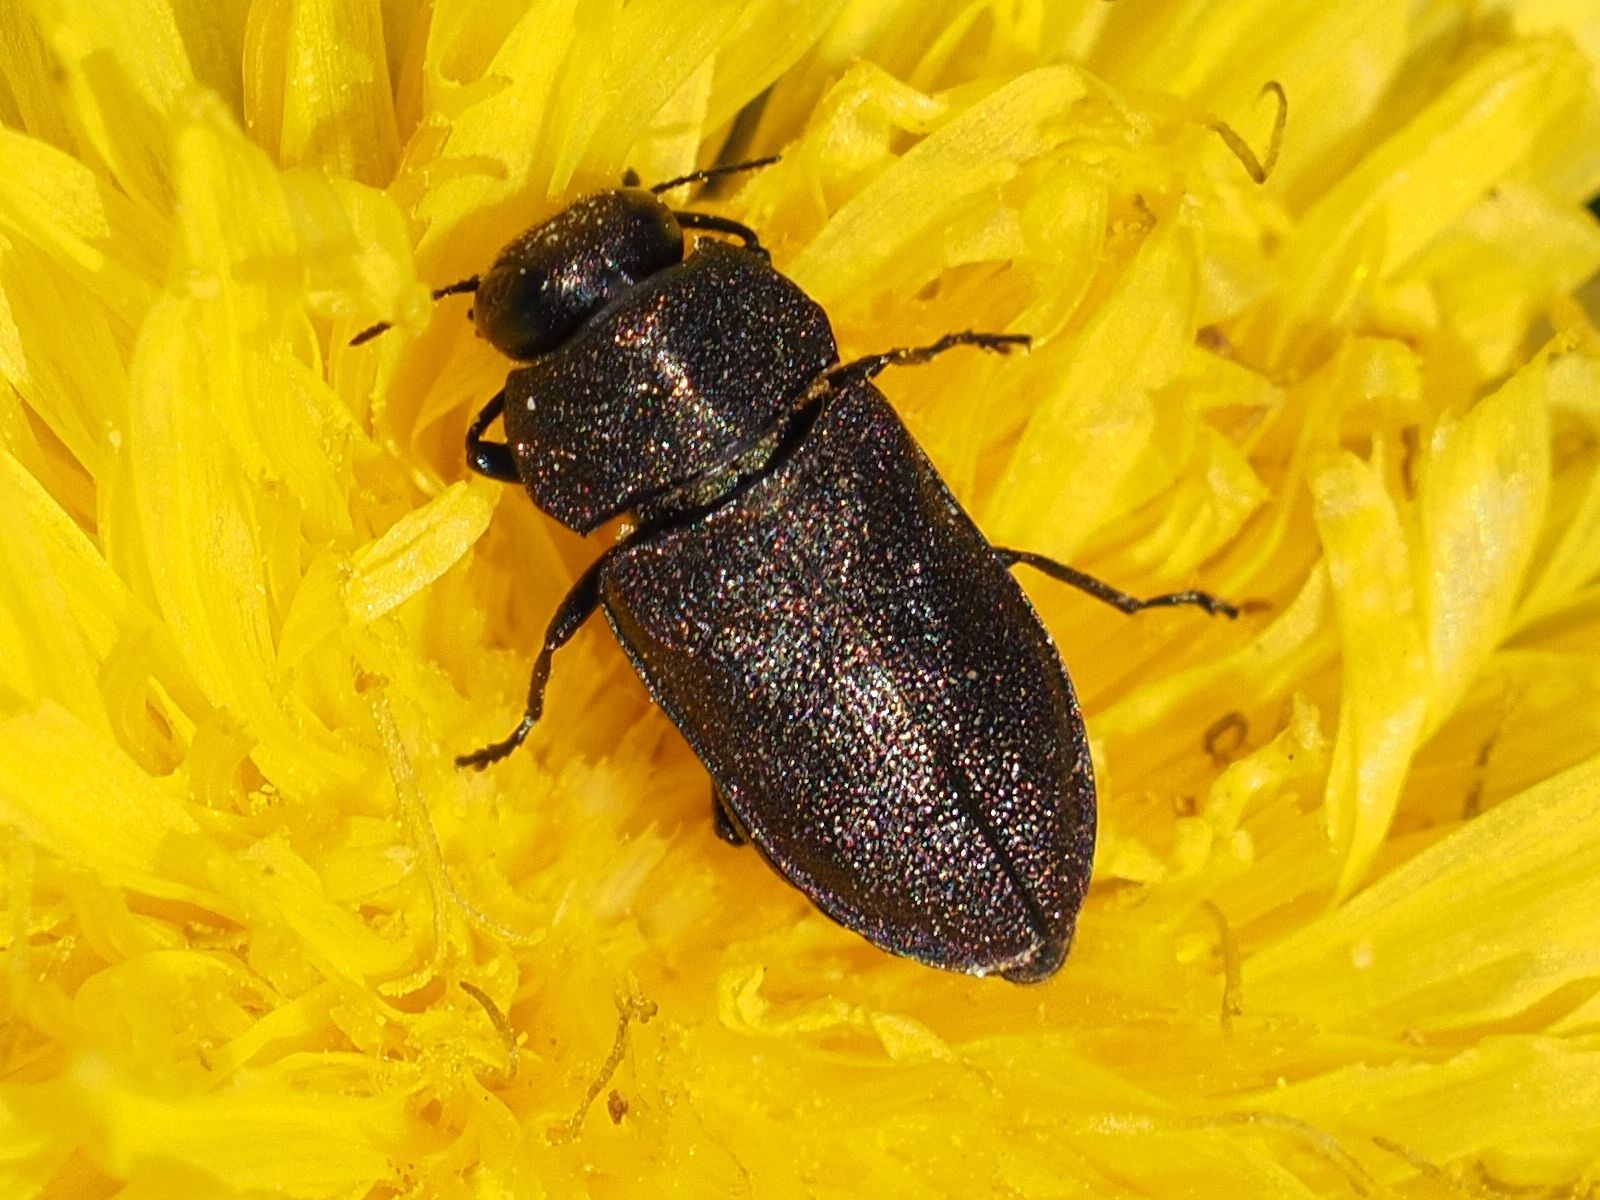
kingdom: Animalia
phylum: Arthropoda
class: Insecta
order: Coleoptera
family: Buprestidae
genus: Anthaxia
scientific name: Anthaxia helvetica
